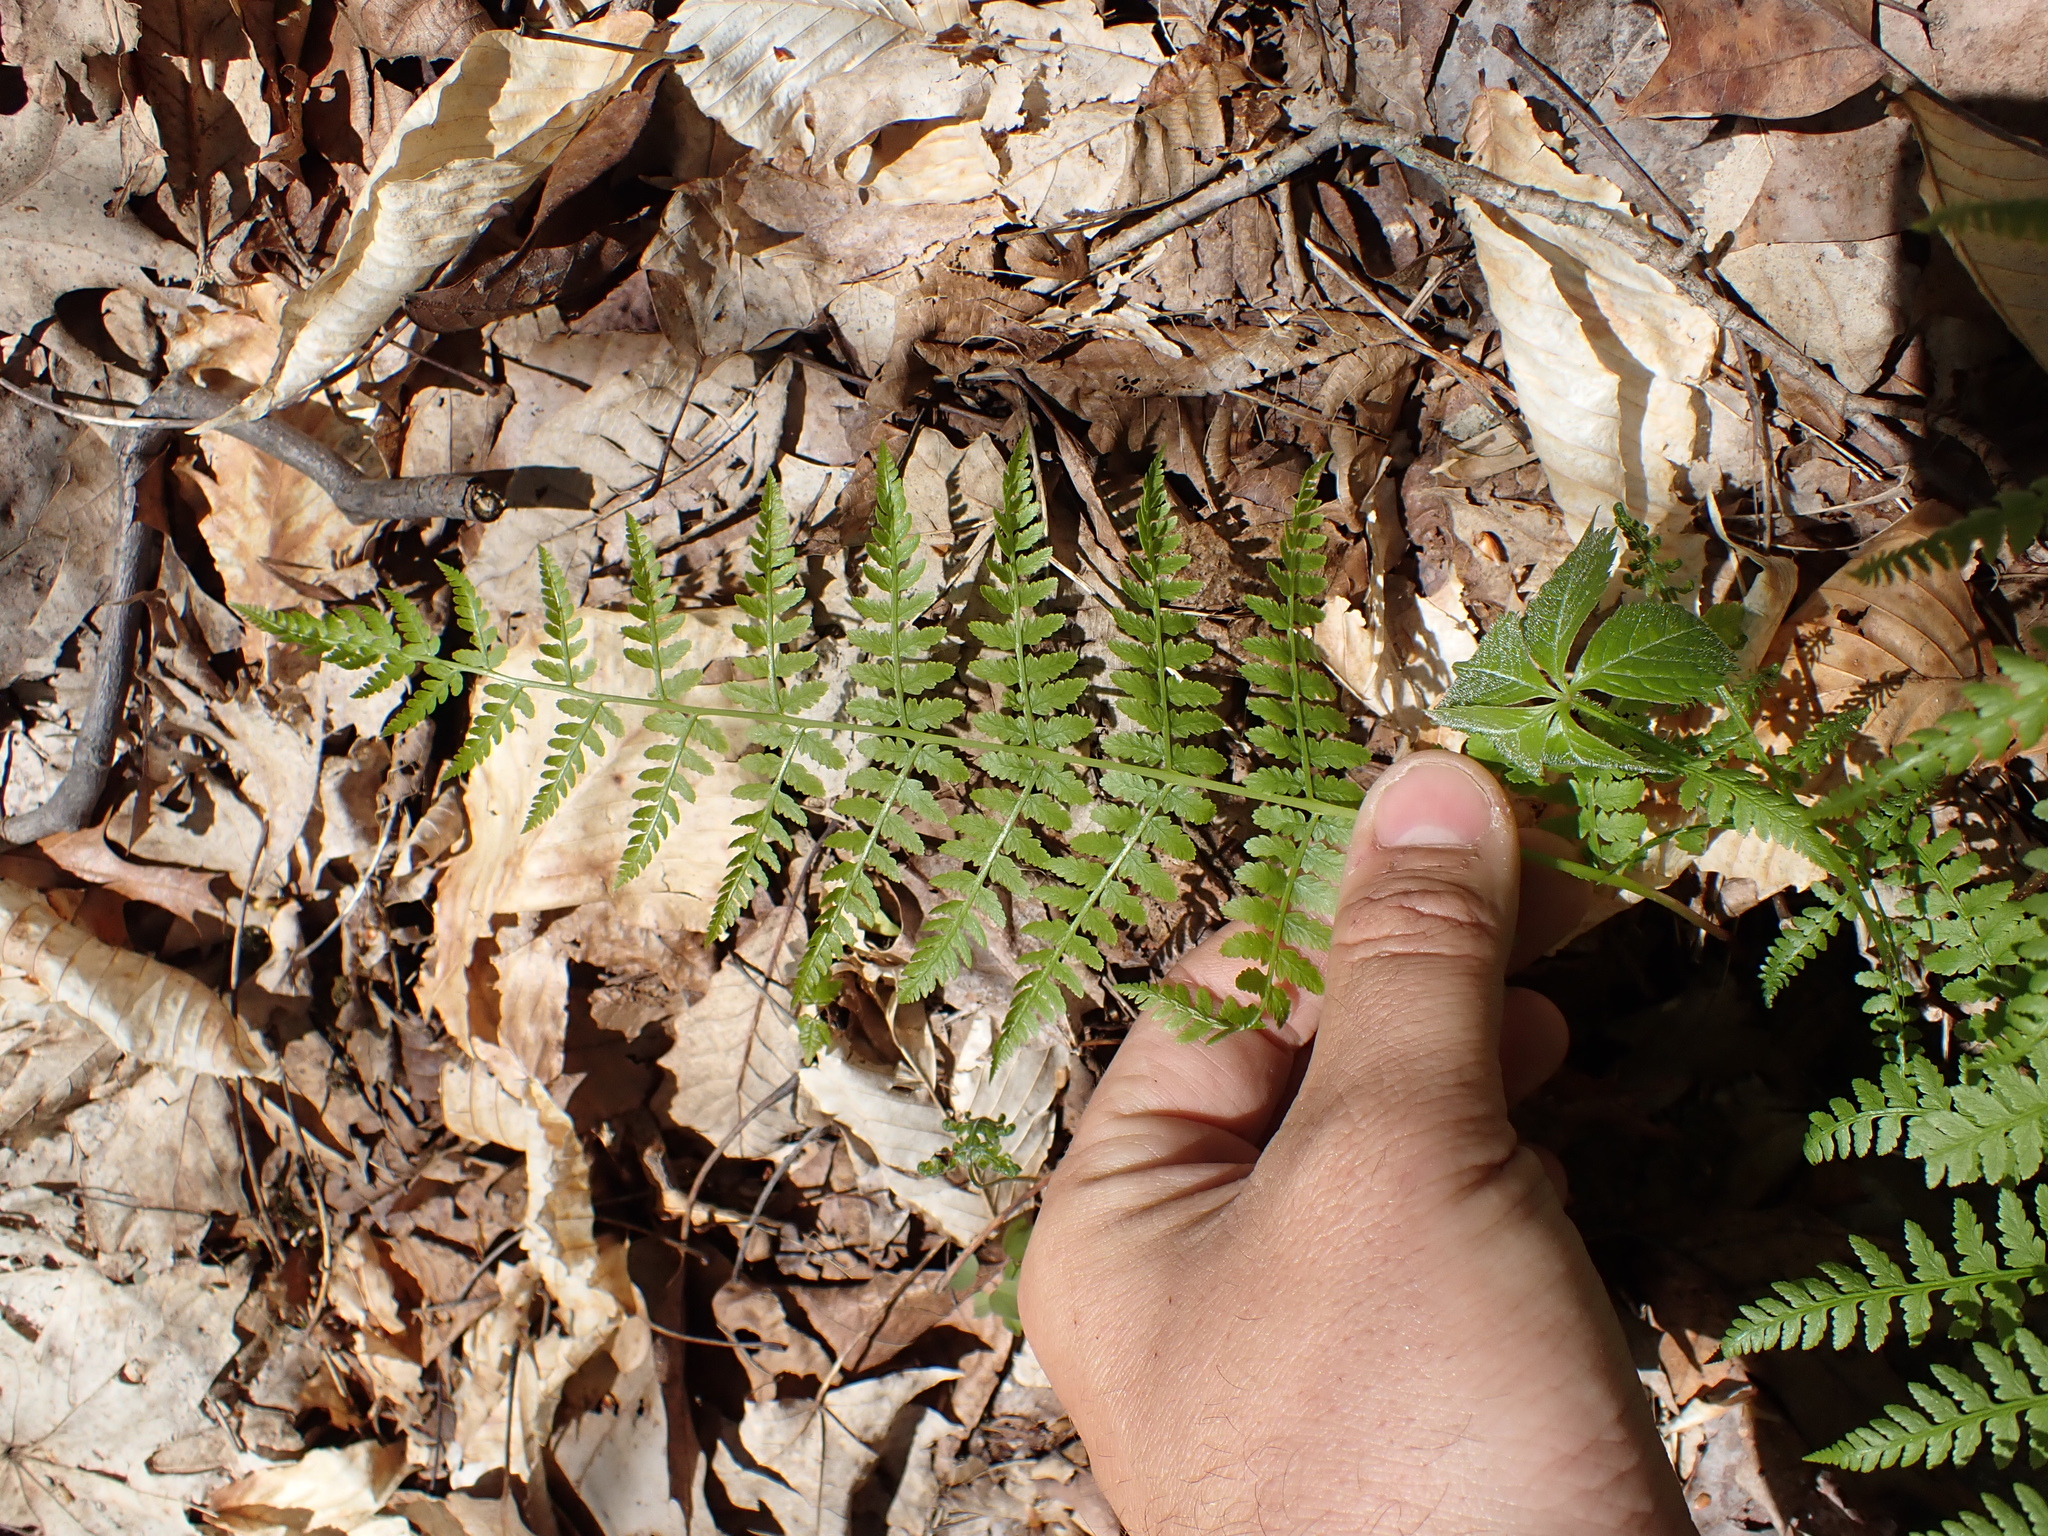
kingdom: Plantae
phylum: Tracheophyta
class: Polypodiopsida
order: Polypodiales
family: Athyriaceae
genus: Athyrium
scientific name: Athyrium asplenioides
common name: Southern lady fern
